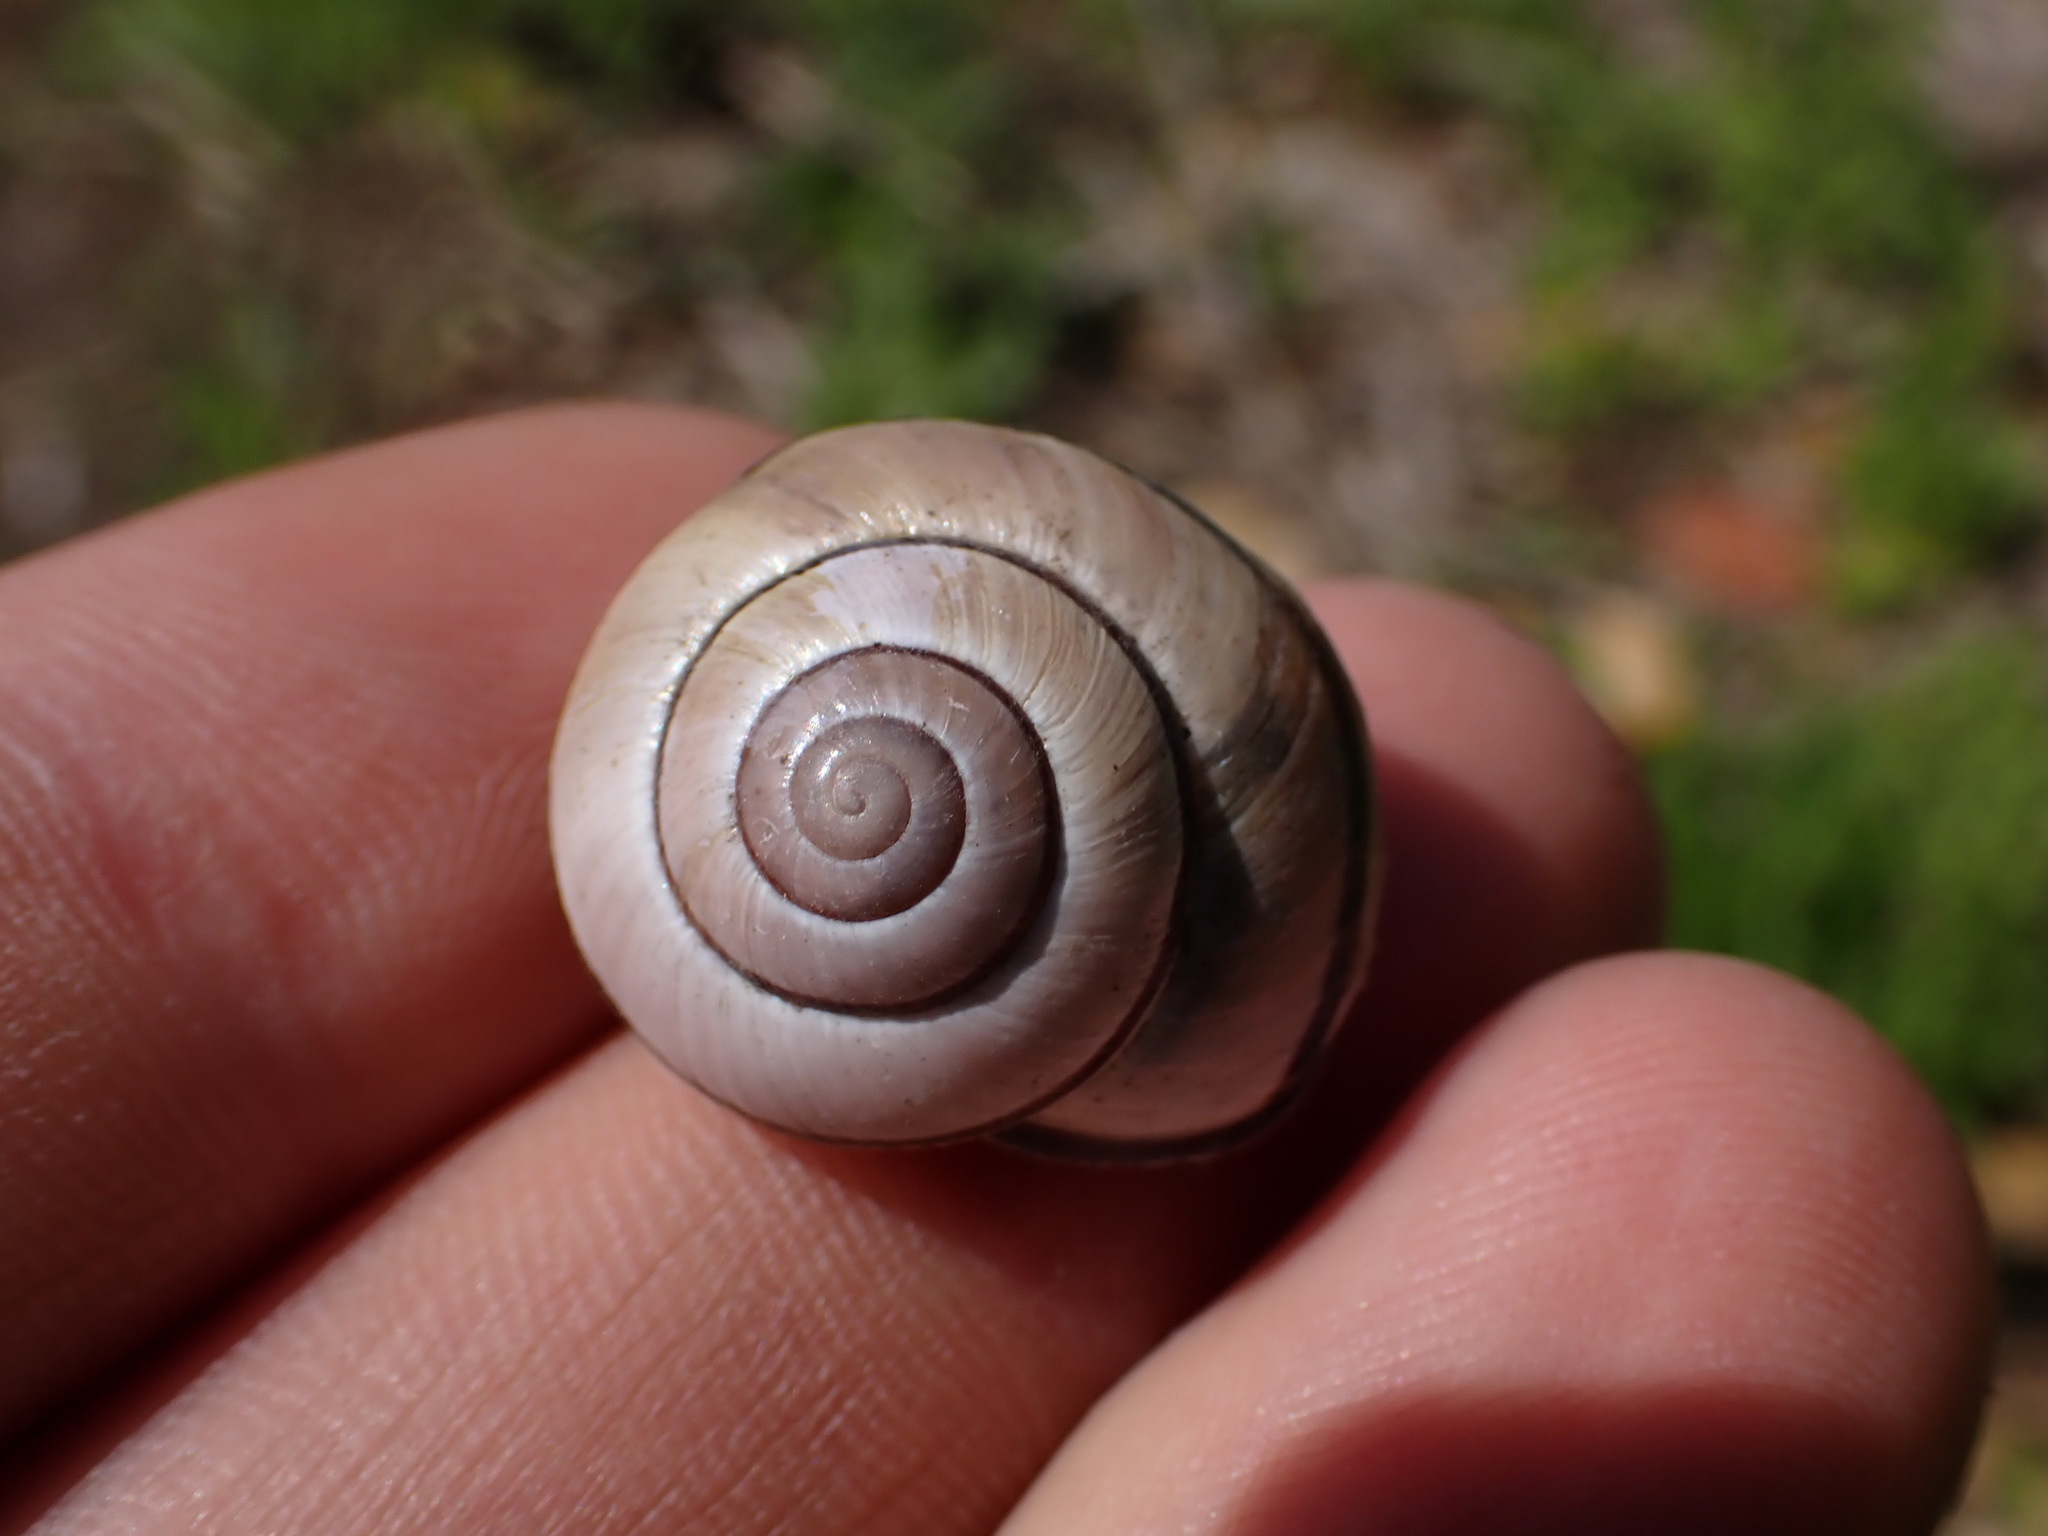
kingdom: Animalia
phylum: Mollusca
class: Gastropoda
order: Stylommatophora
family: Helicidae
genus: Cepaea
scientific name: Cepaea nemoralis
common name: Grovesnail
